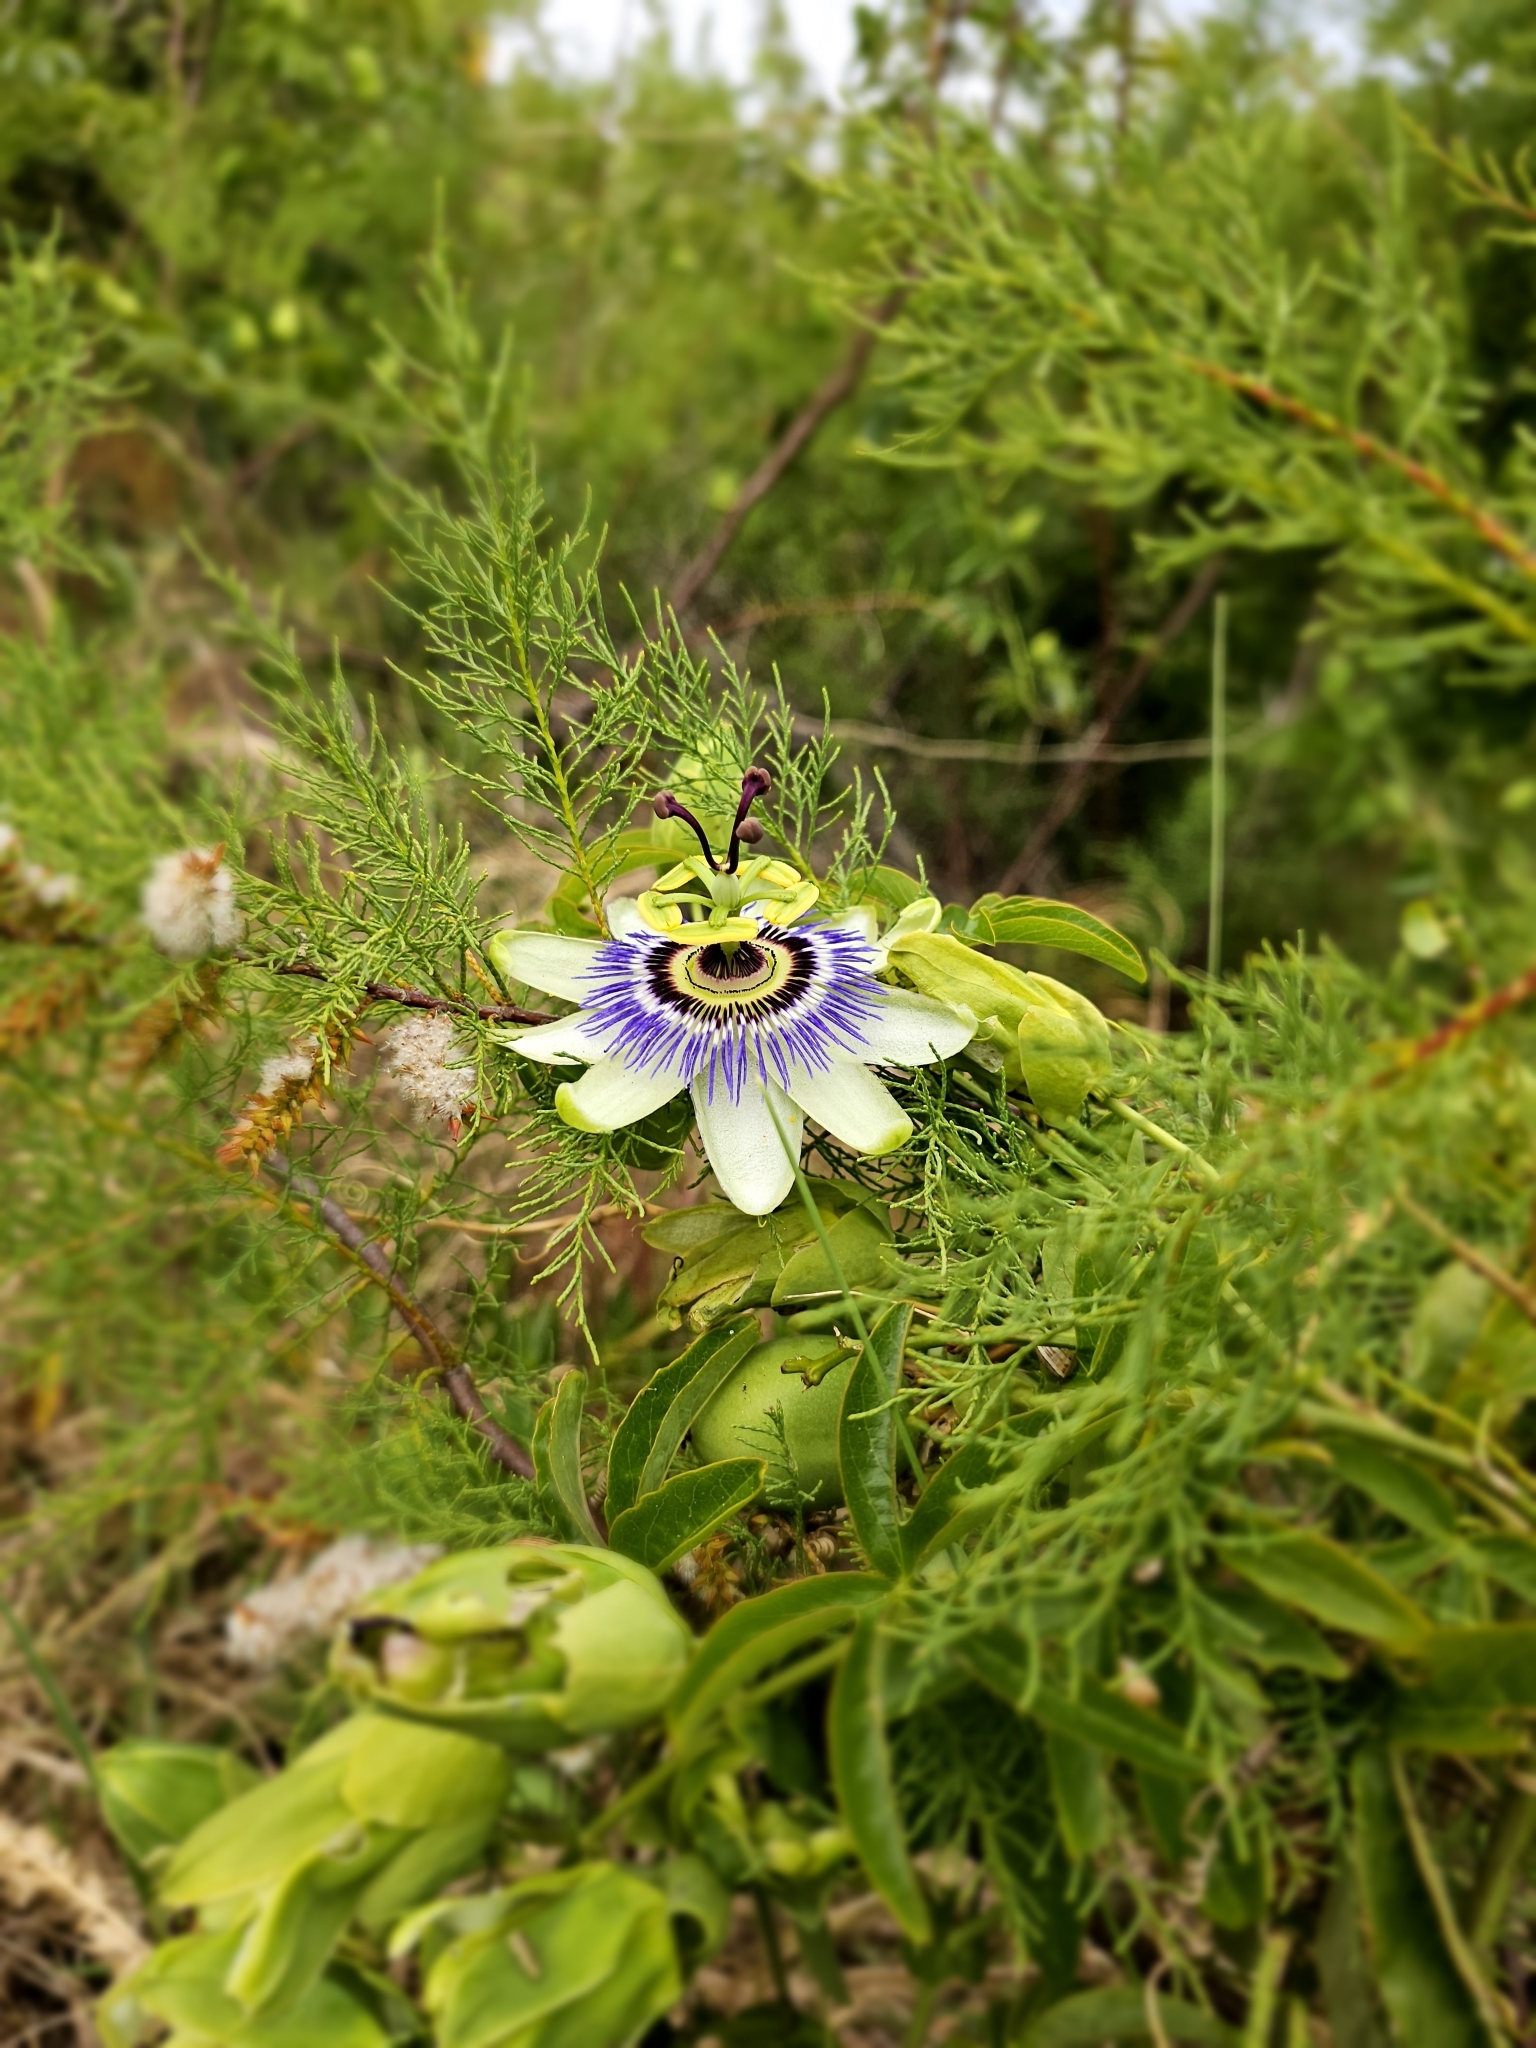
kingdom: Plantae
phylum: Tracheophyta
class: Magnoliopsida
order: Malpighiales
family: Passifloraceae
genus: Passiflora
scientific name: Passiflora caerulea
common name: Blue passionflower
